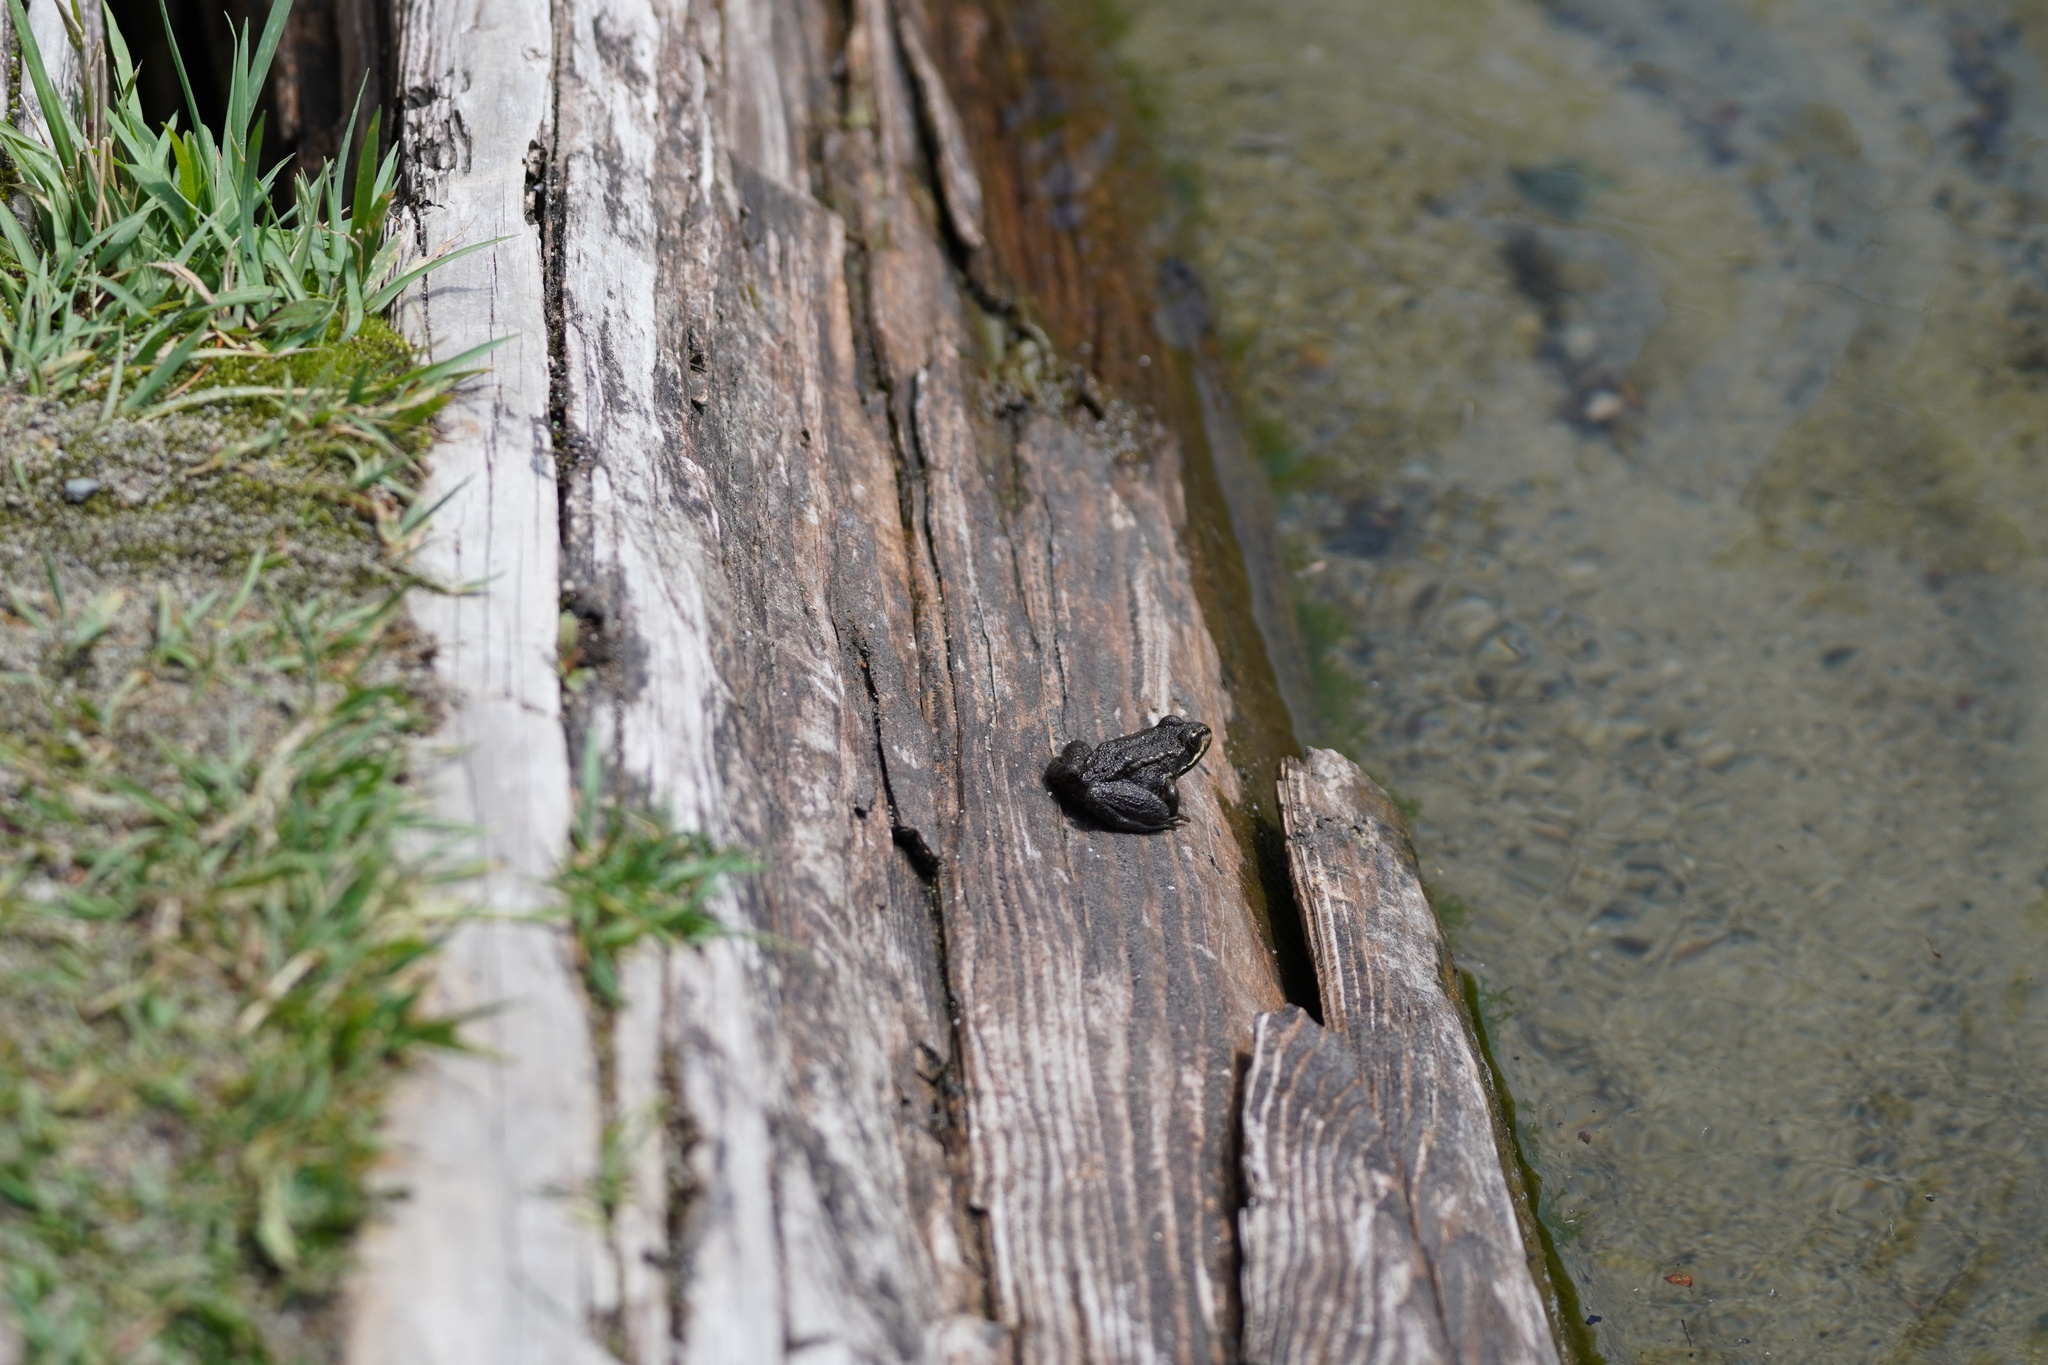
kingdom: Animalia
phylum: Chordata
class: Amphibia
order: Anura
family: Ranidae
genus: Rana
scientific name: Rana luteiventris
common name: Columbia spotted frog
